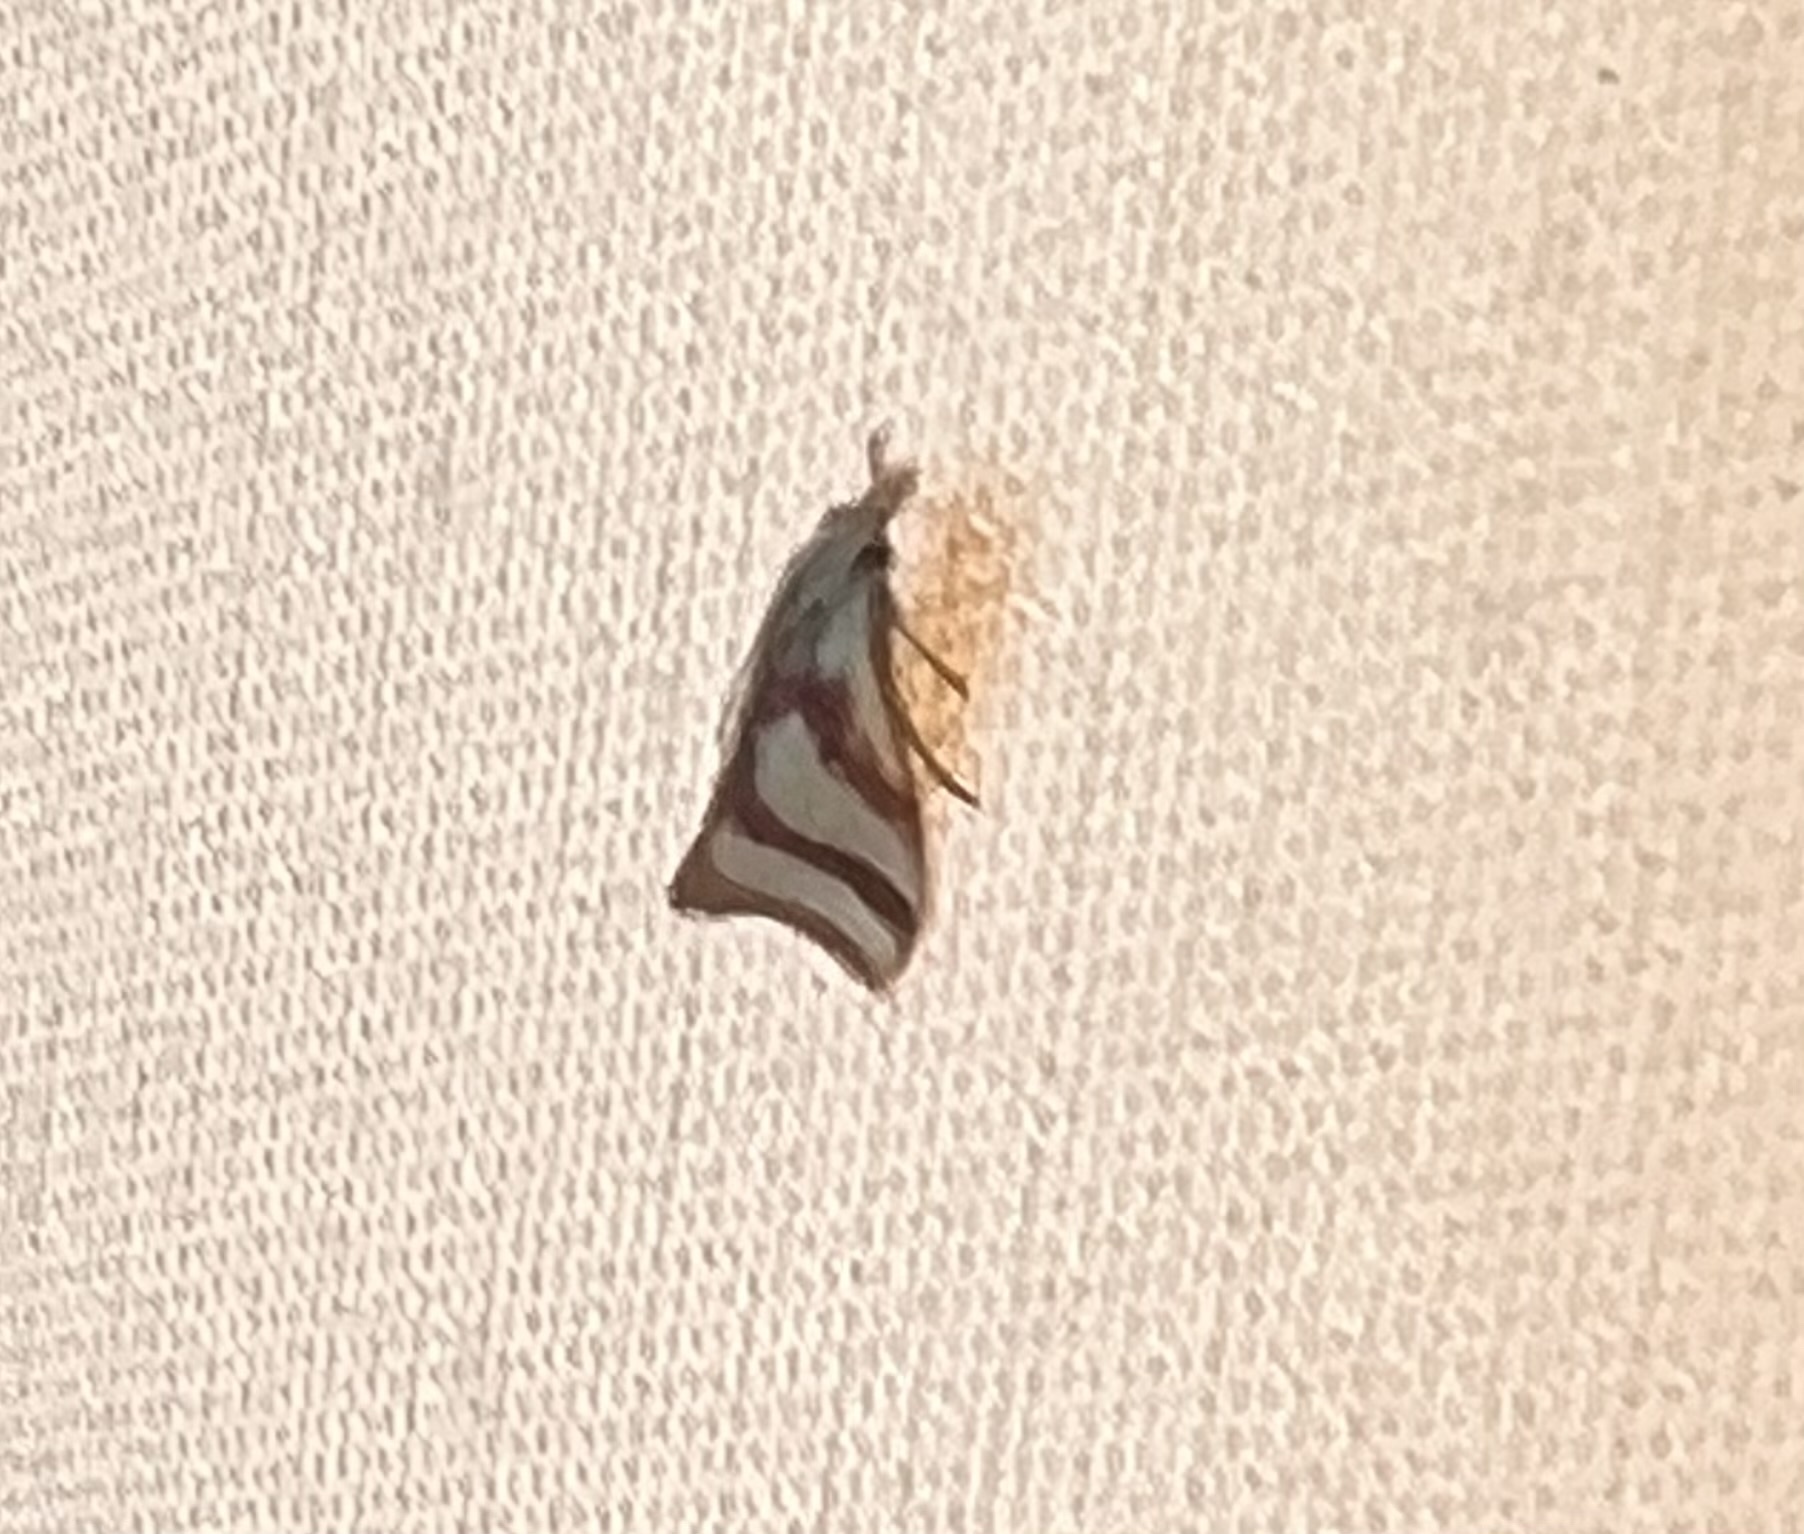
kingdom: Animalia
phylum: Arthropoda
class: Insecta
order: Lepidoptera
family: Crambidae
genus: Microtheoris
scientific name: Microtheoris vibicalis
